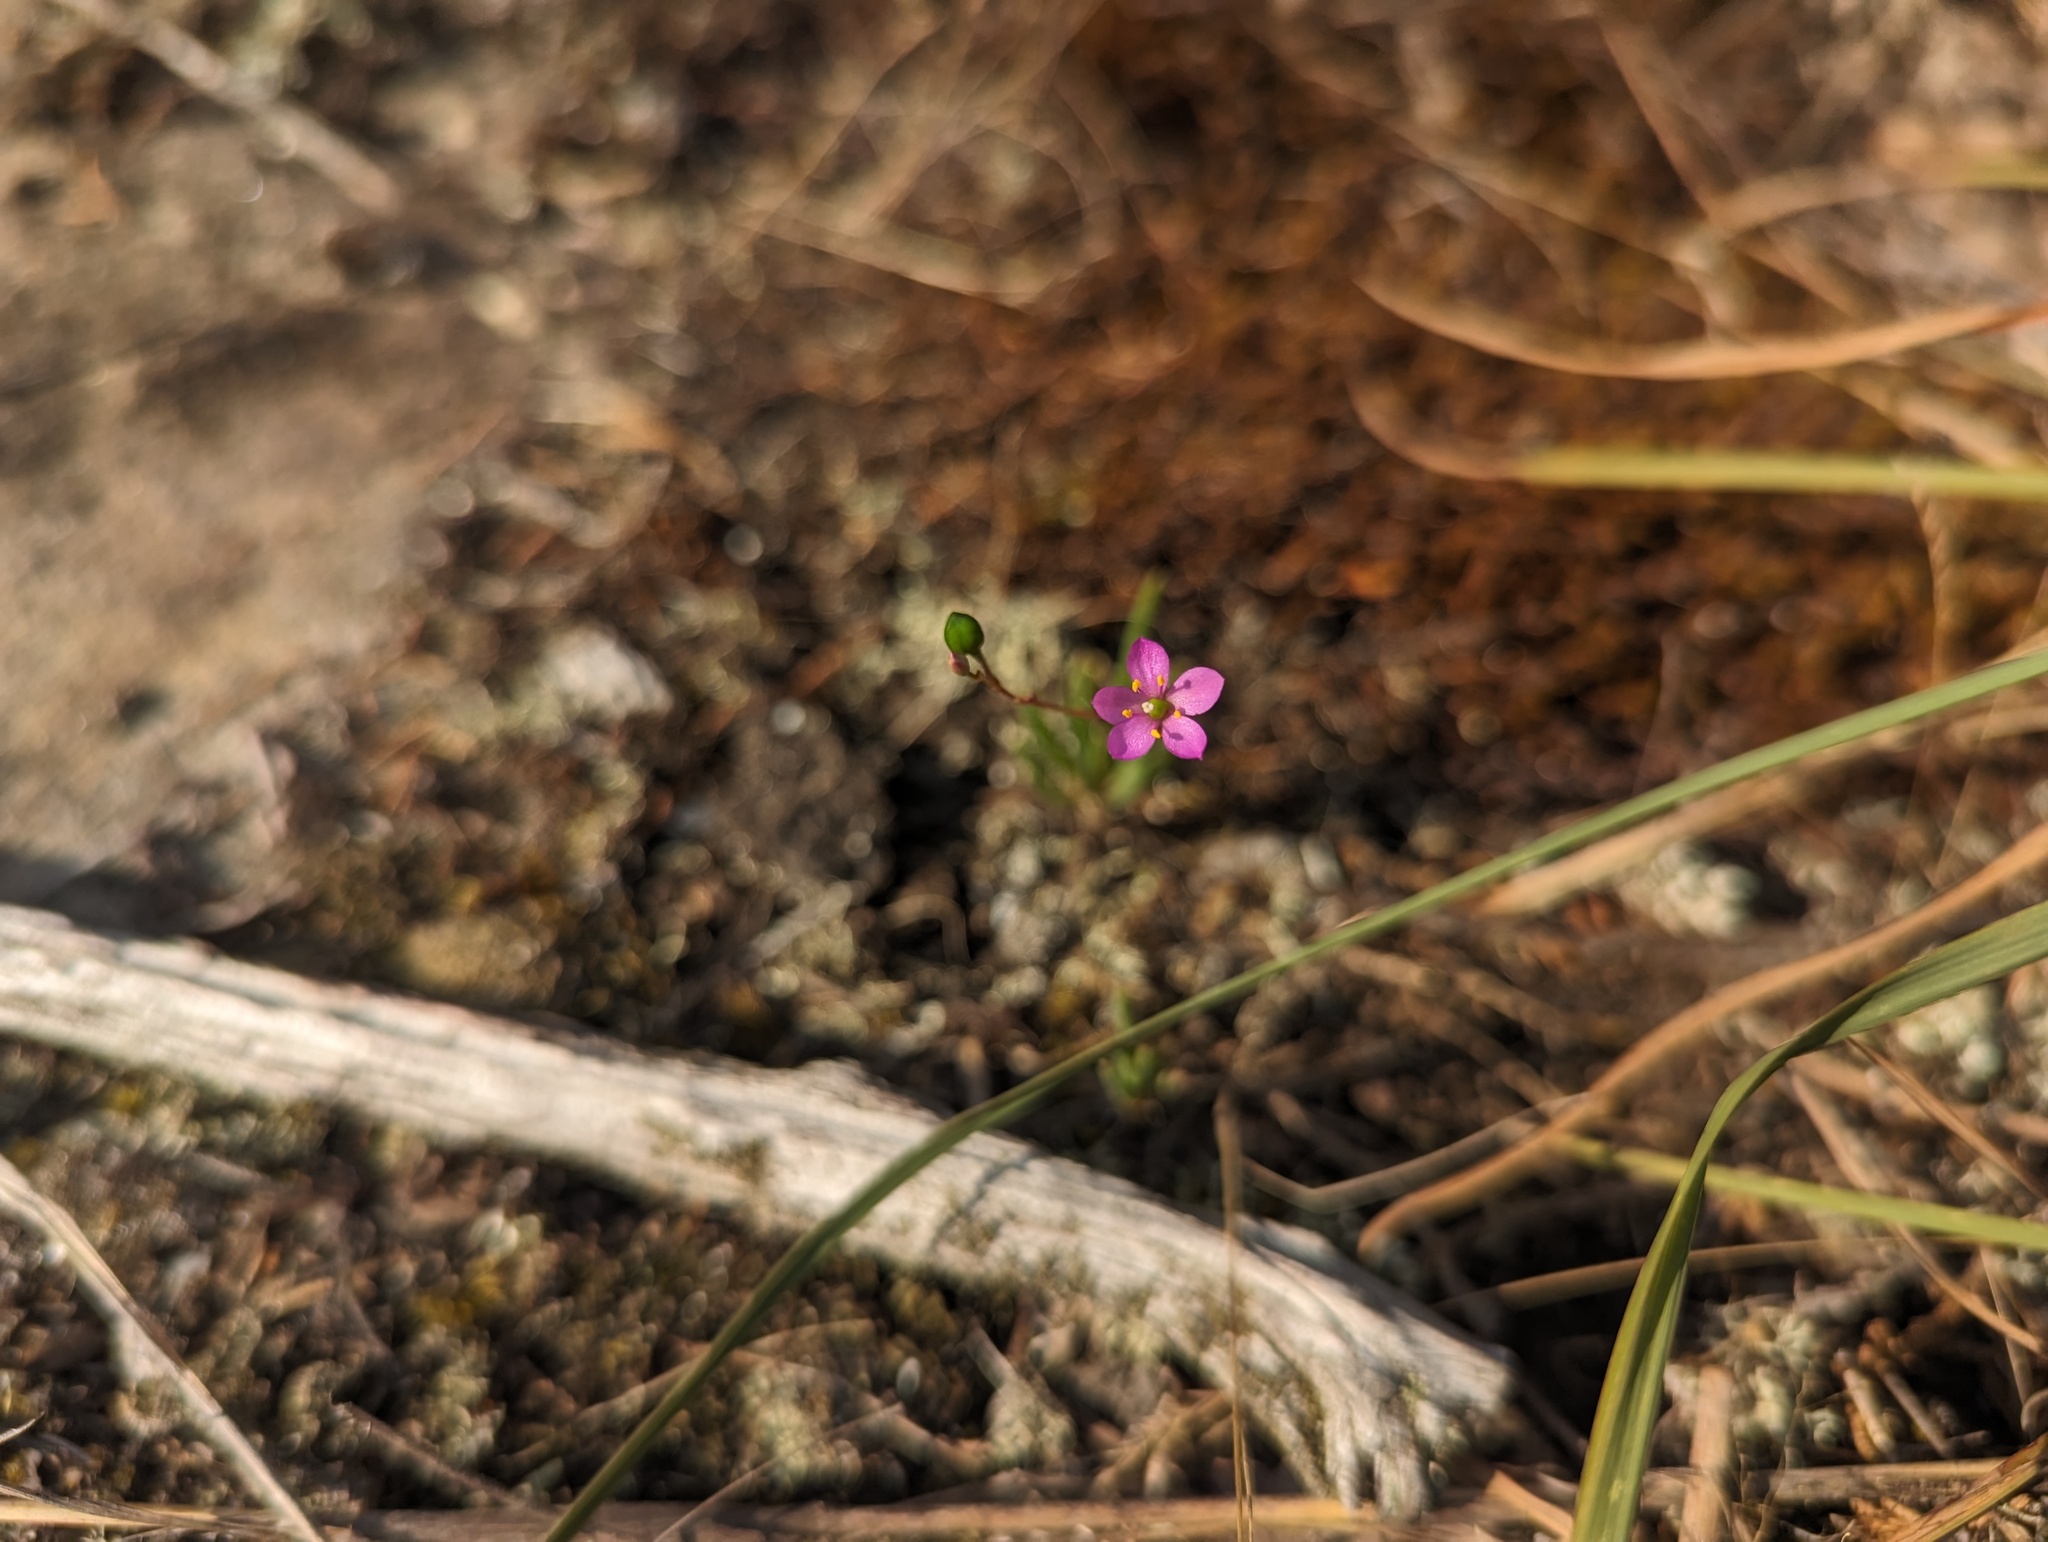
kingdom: Plantae
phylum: Tracheophyta
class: Magnoliopsida
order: Caryophyllales
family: Montiaceae
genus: Phemeranthus
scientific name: Phemeranthus parviflorus
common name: Sunbright
